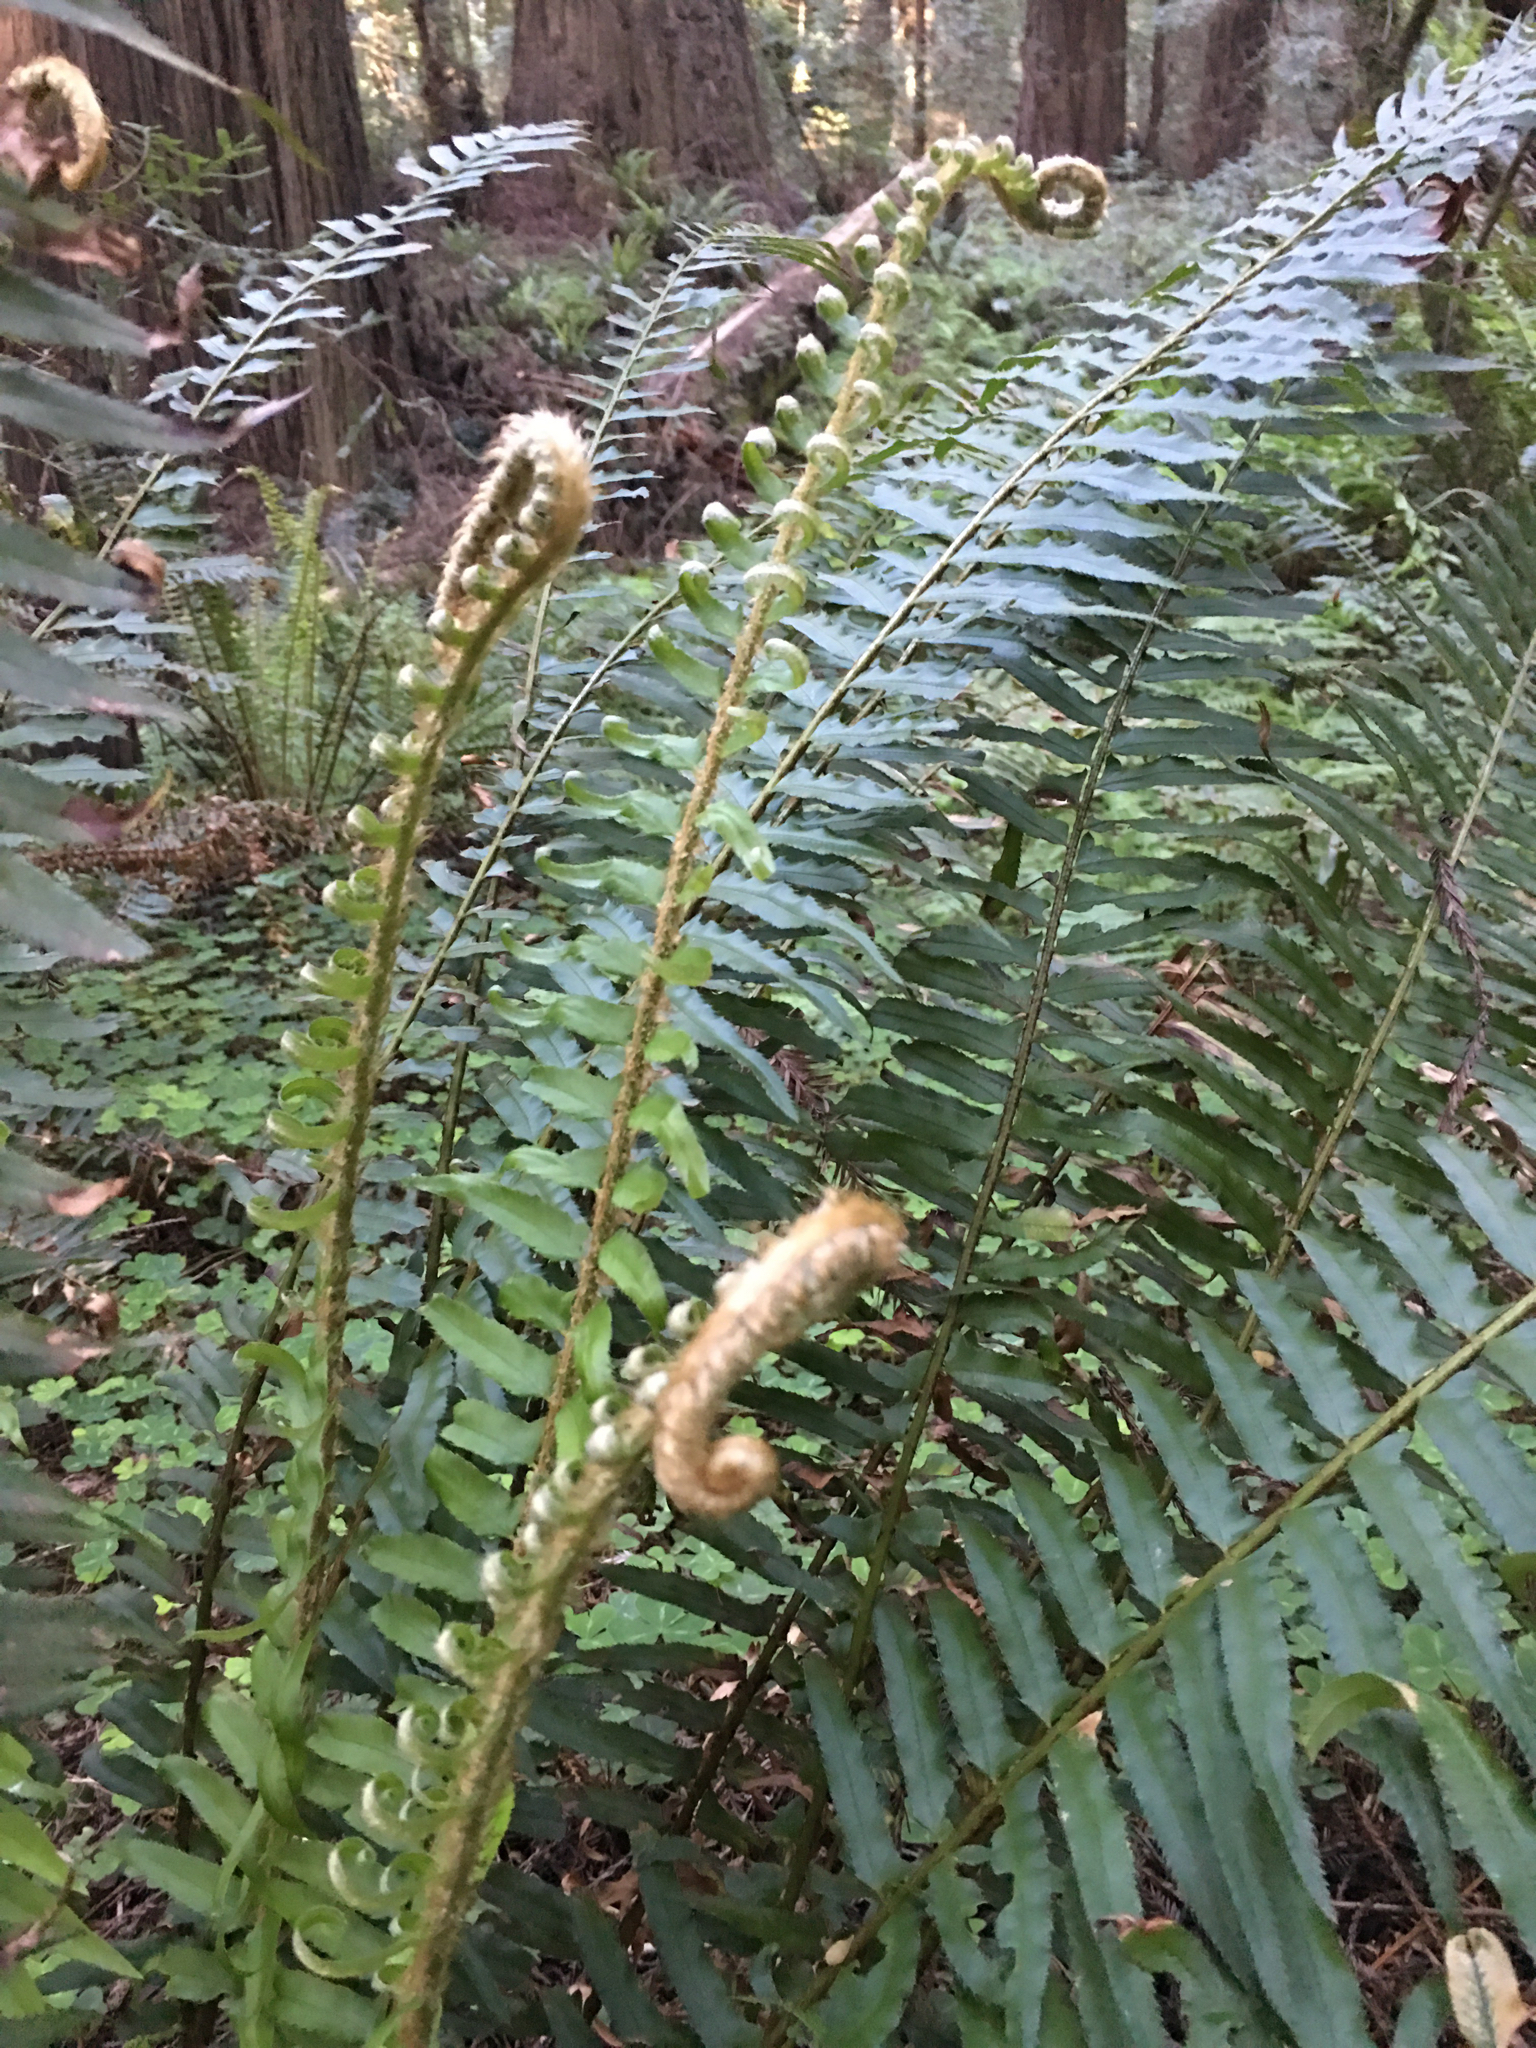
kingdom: Plantae
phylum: Tracheophyta
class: Polypodiopsida
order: Polypodiales
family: Dryopteridaceae
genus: Polystichum
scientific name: Polystichum munitum
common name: Western sword-fern
